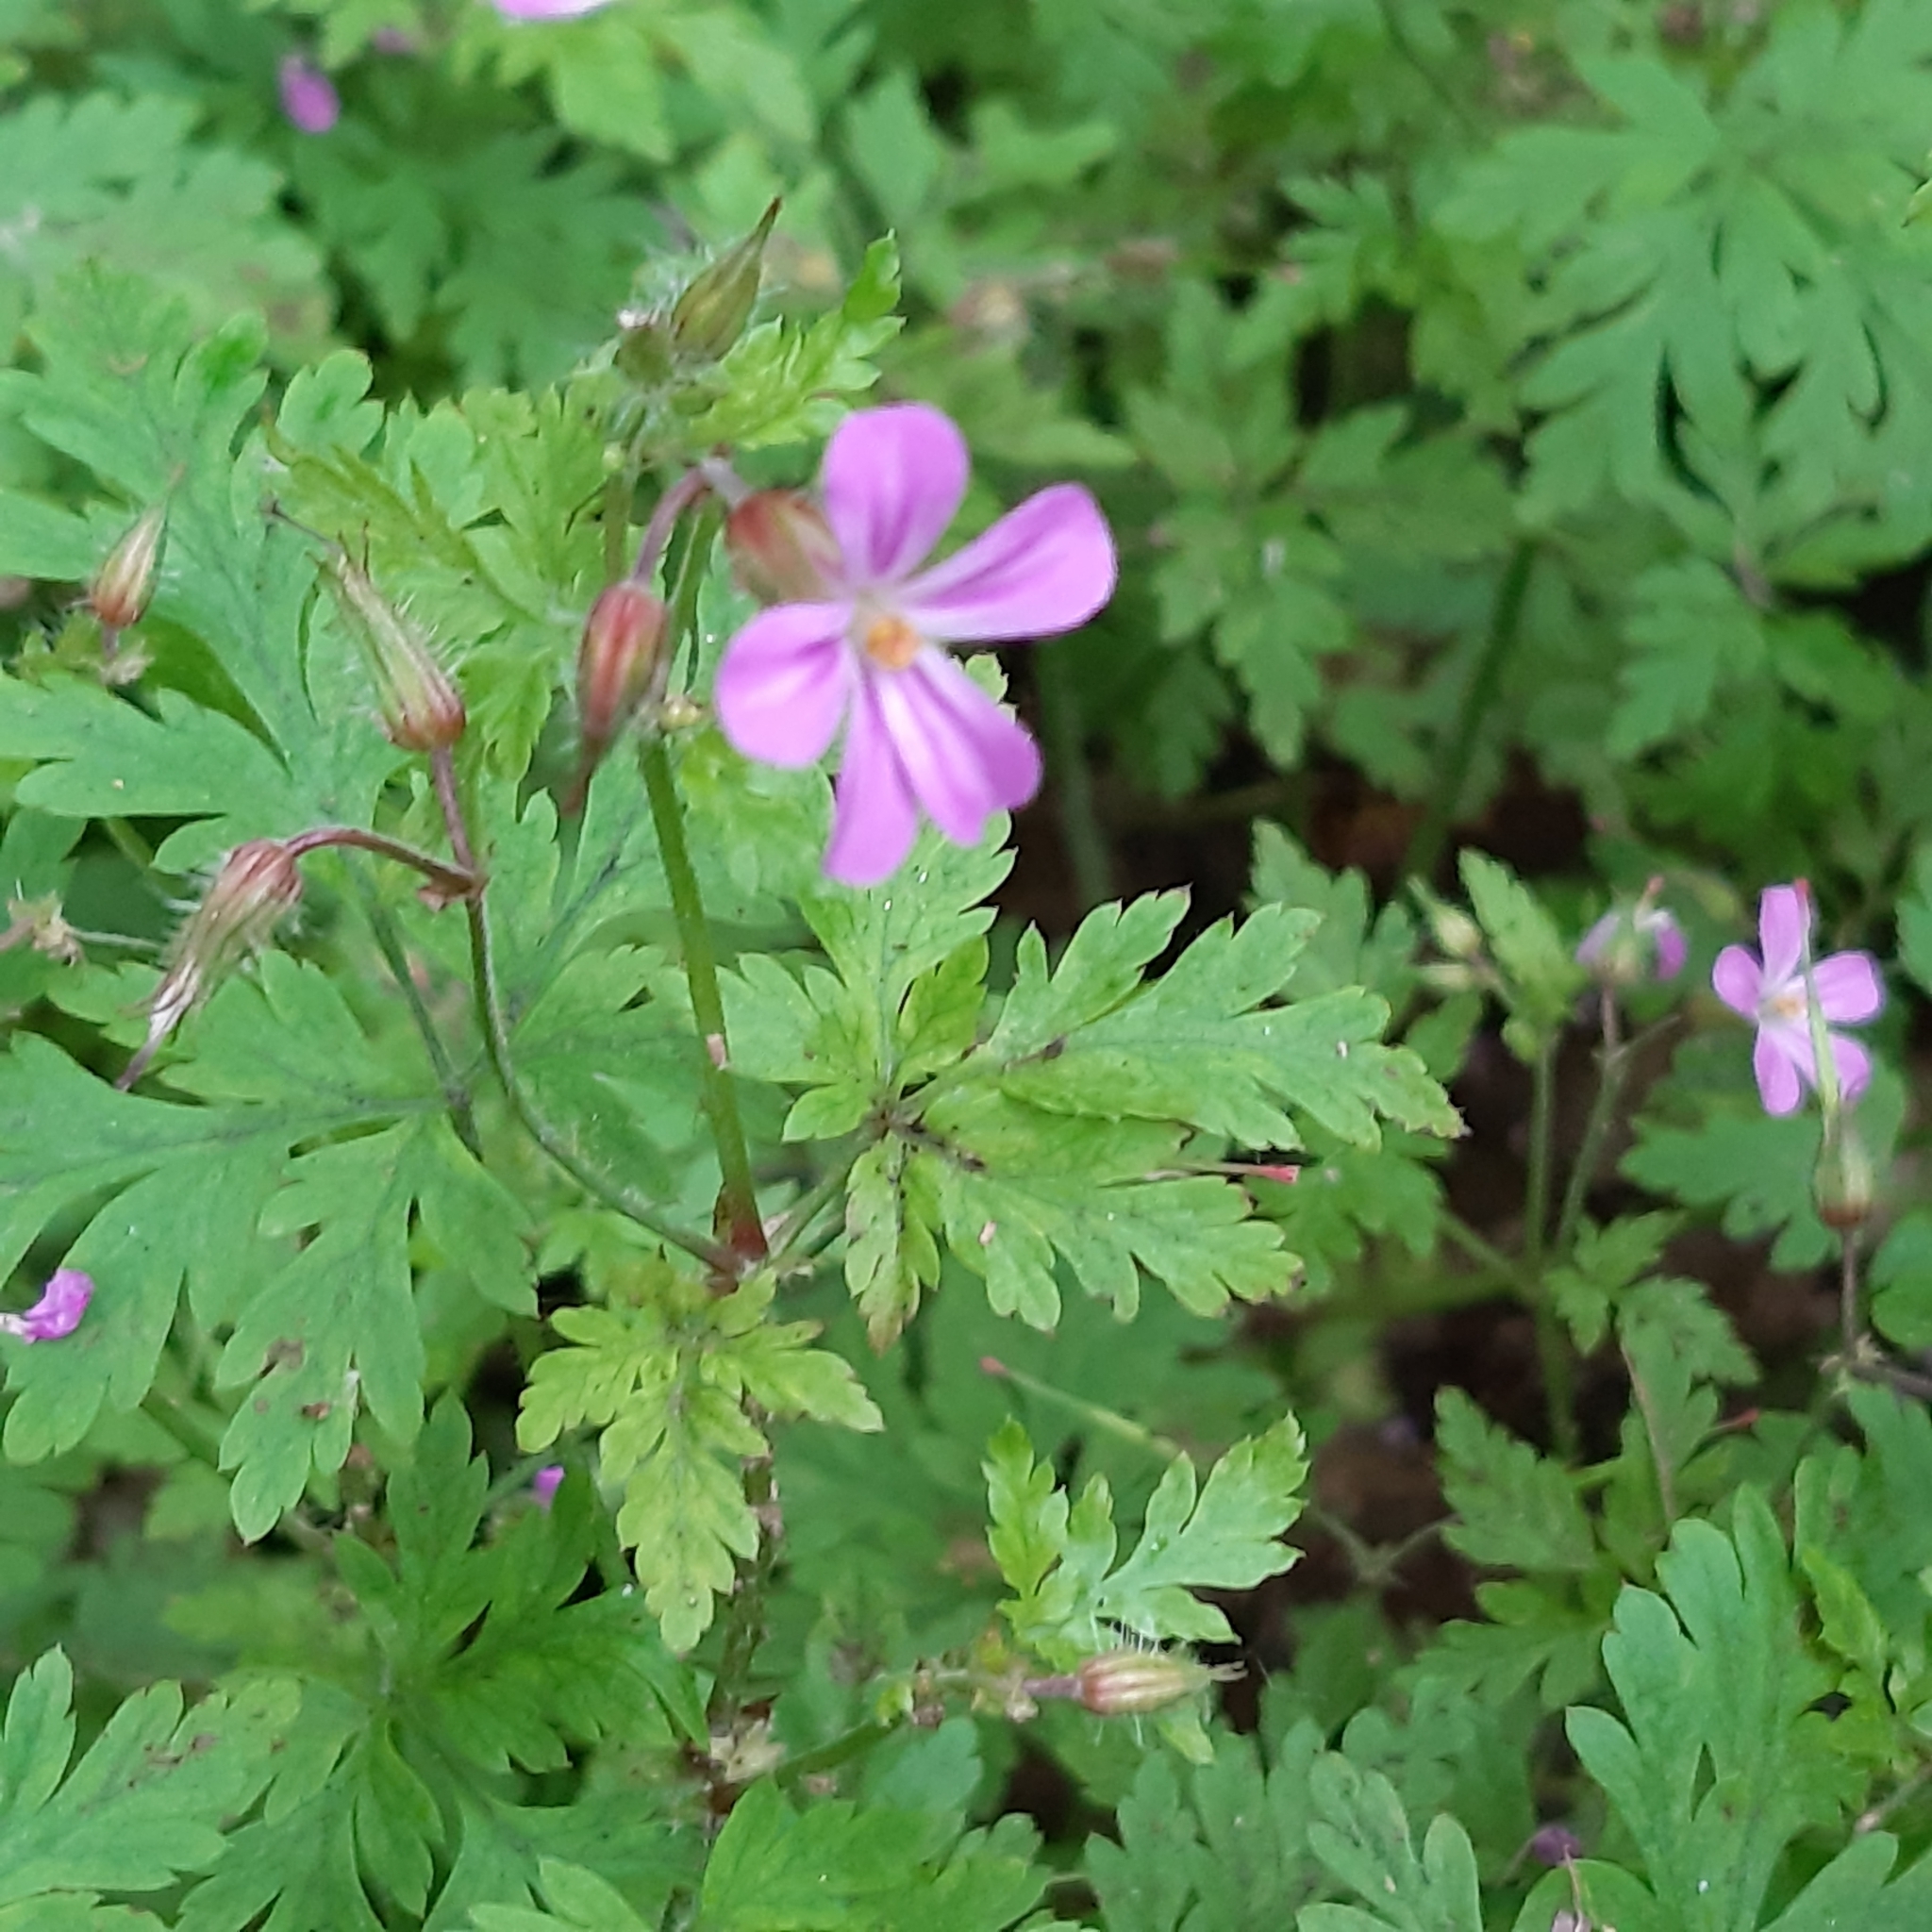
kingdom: Plantae
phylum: Tracheophyta
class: Magnoliopsida
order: Geraniales
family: Geraniaceae
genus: Geranium
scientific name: Geranium robertianum
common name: Herb-robert
